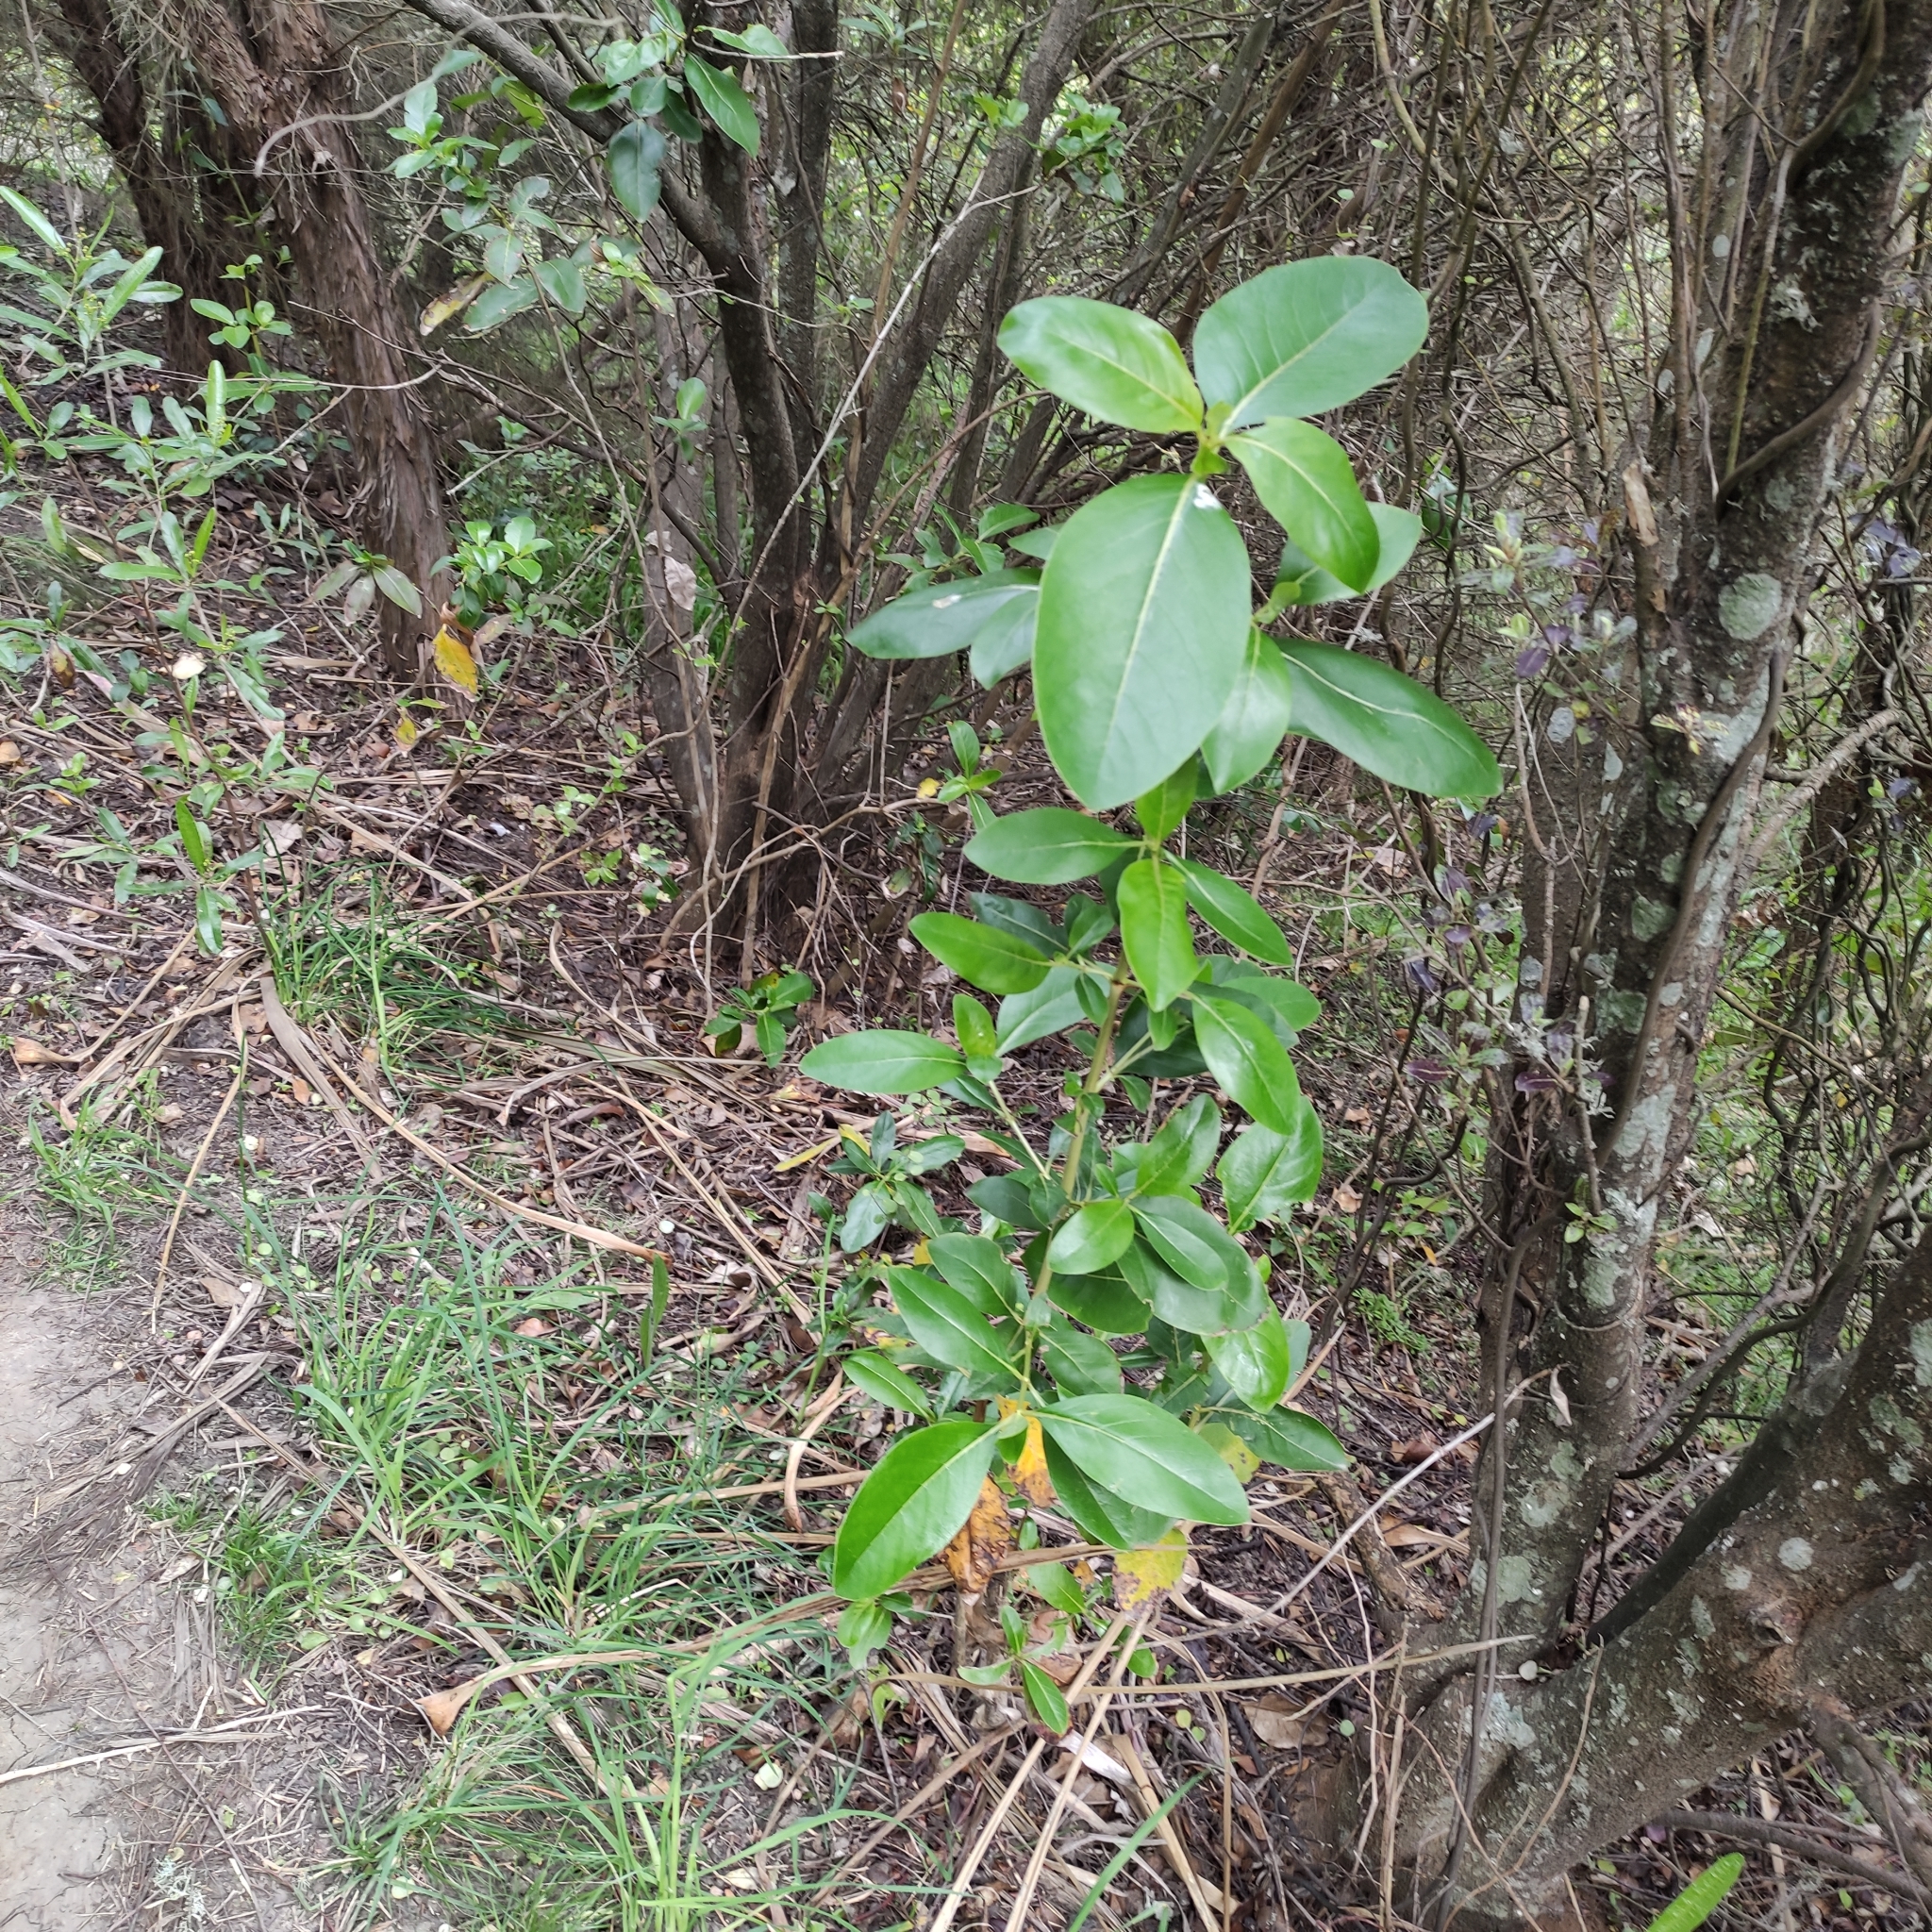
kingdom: Plantae
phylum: Tracheophyta
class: Magnoliopsida
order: Gentianales
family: Rubiaceae
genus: Coprosma
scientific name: Coprosma robusta
